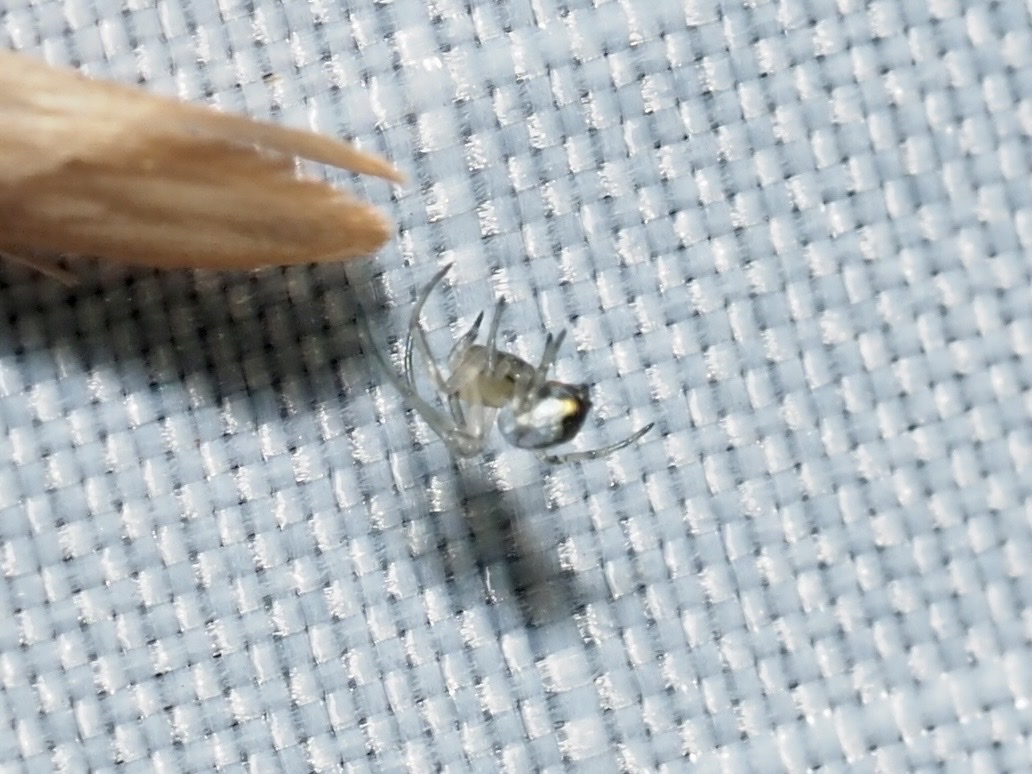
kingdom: Animalia
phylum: Arthropoda
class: Arachnida
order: Araneae
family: Tetragnathidae
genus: Leucauge
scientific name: Leucauge venusta
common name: Longjawed orb weavers
